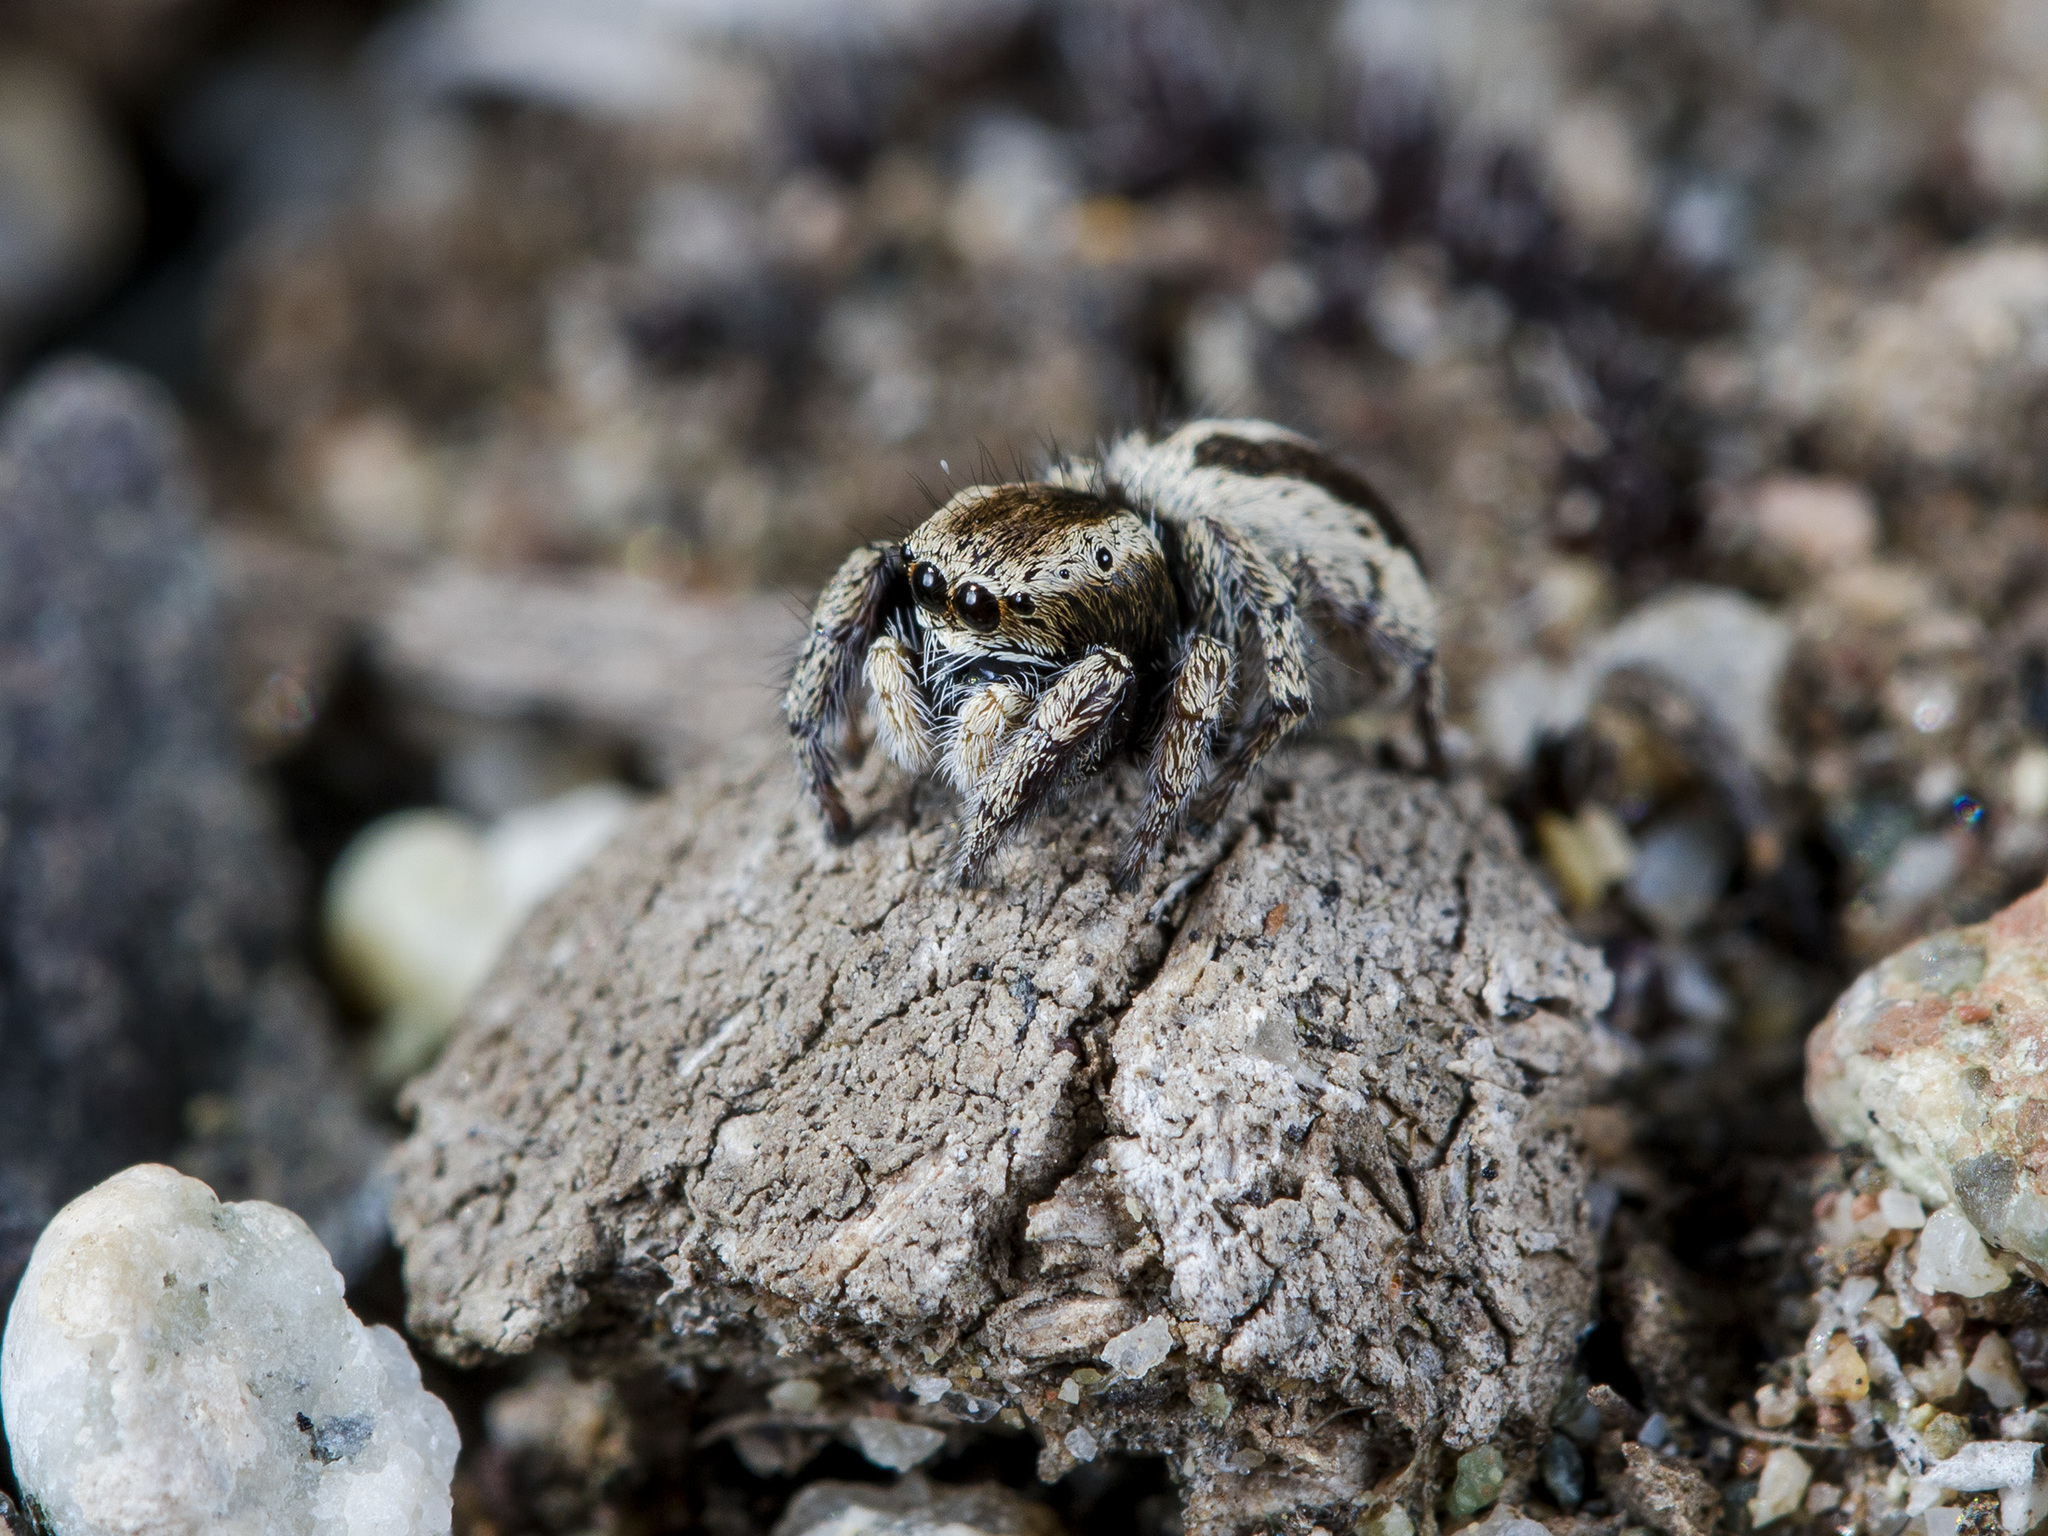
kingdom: Animalia
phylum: Arthropoda
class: Arachnida
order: Araneae
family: Salticidae
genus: Pellenes
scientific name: Pellenes epularis
